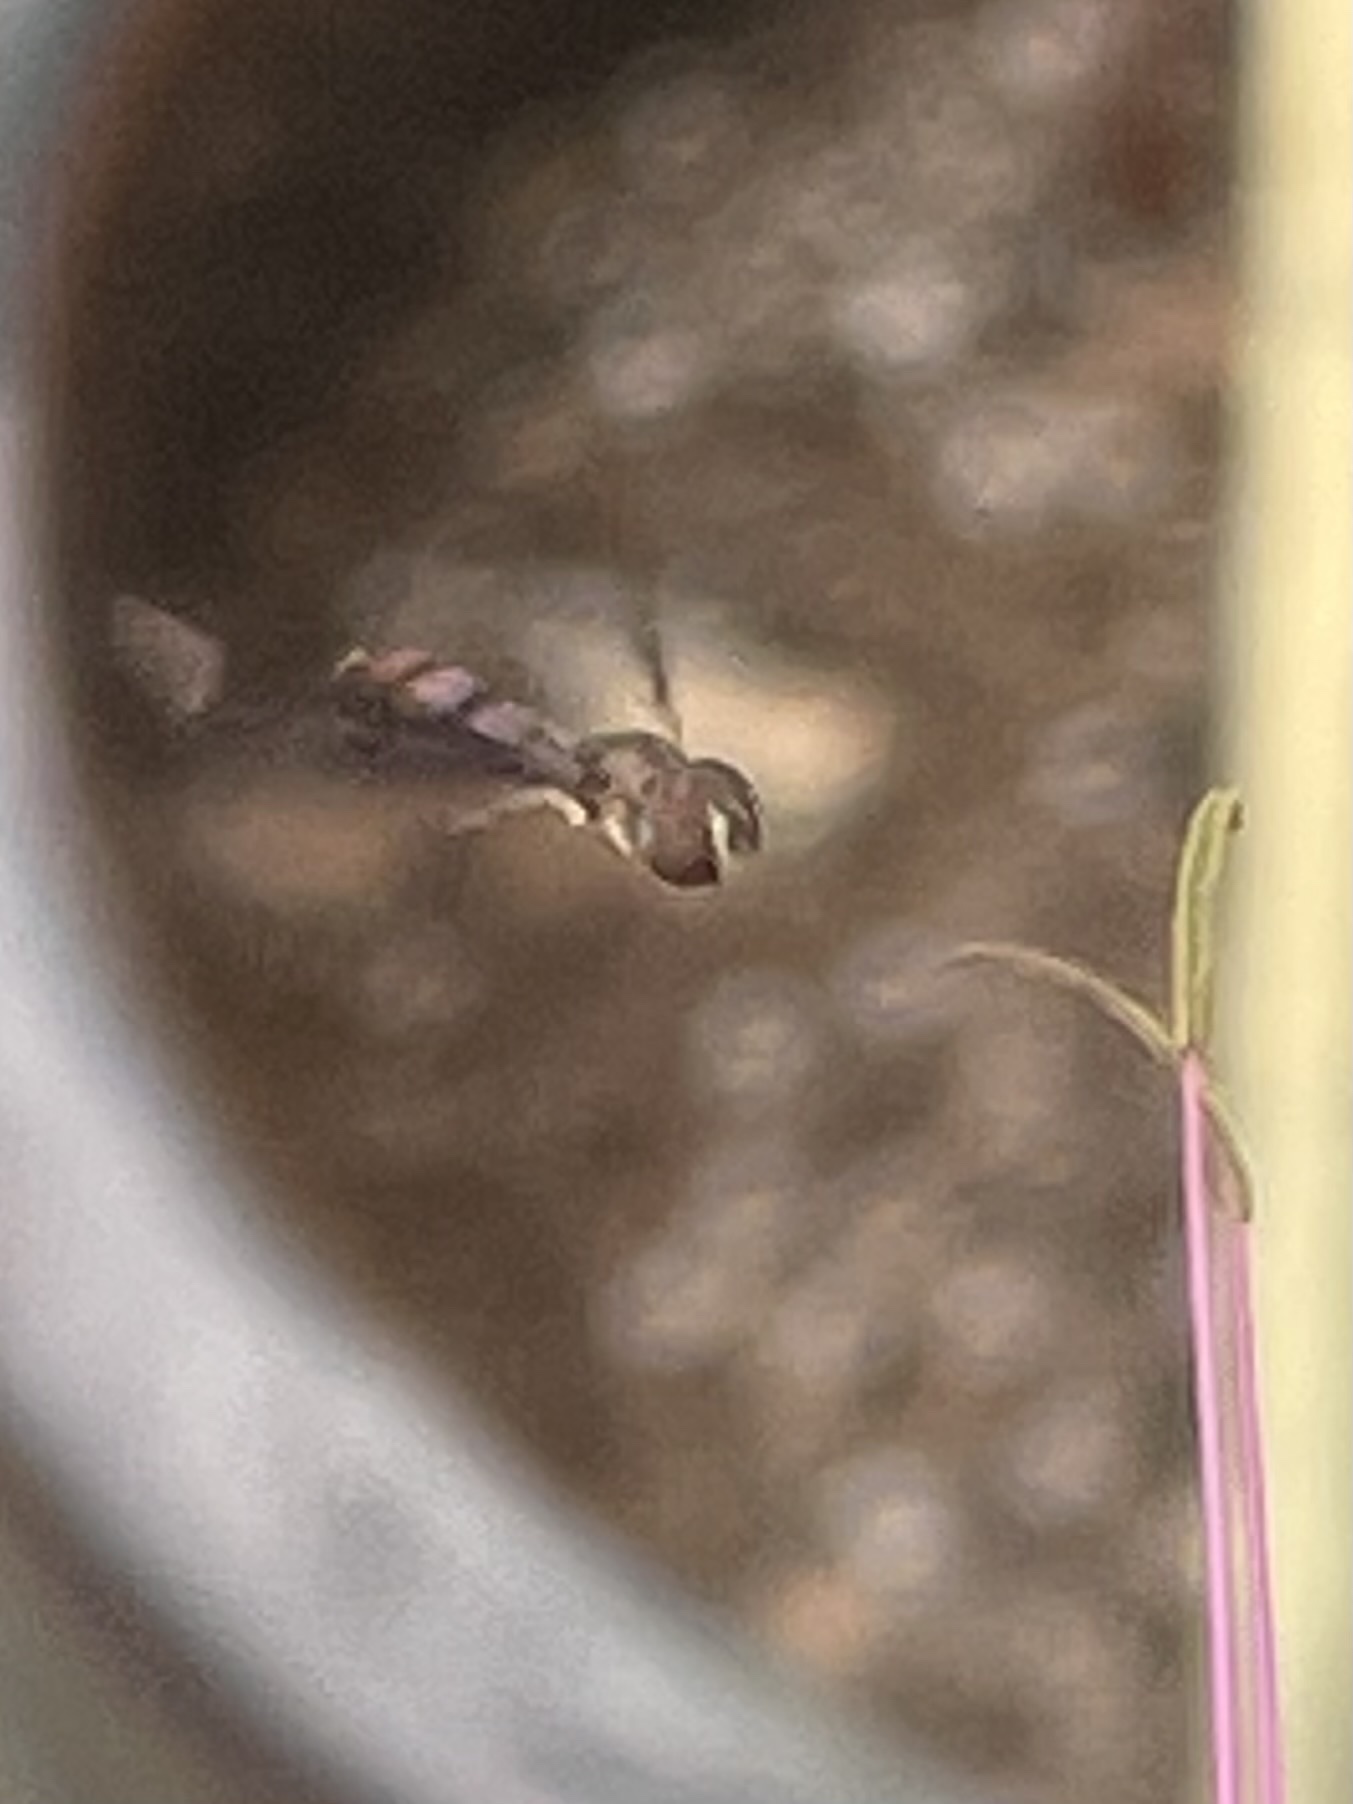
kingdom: Animalia
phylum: Arthropoda
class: Insecta
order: Diptera
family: Syrphidae
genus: Ocyptamus
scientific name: Ocyptamus fuscipennis
